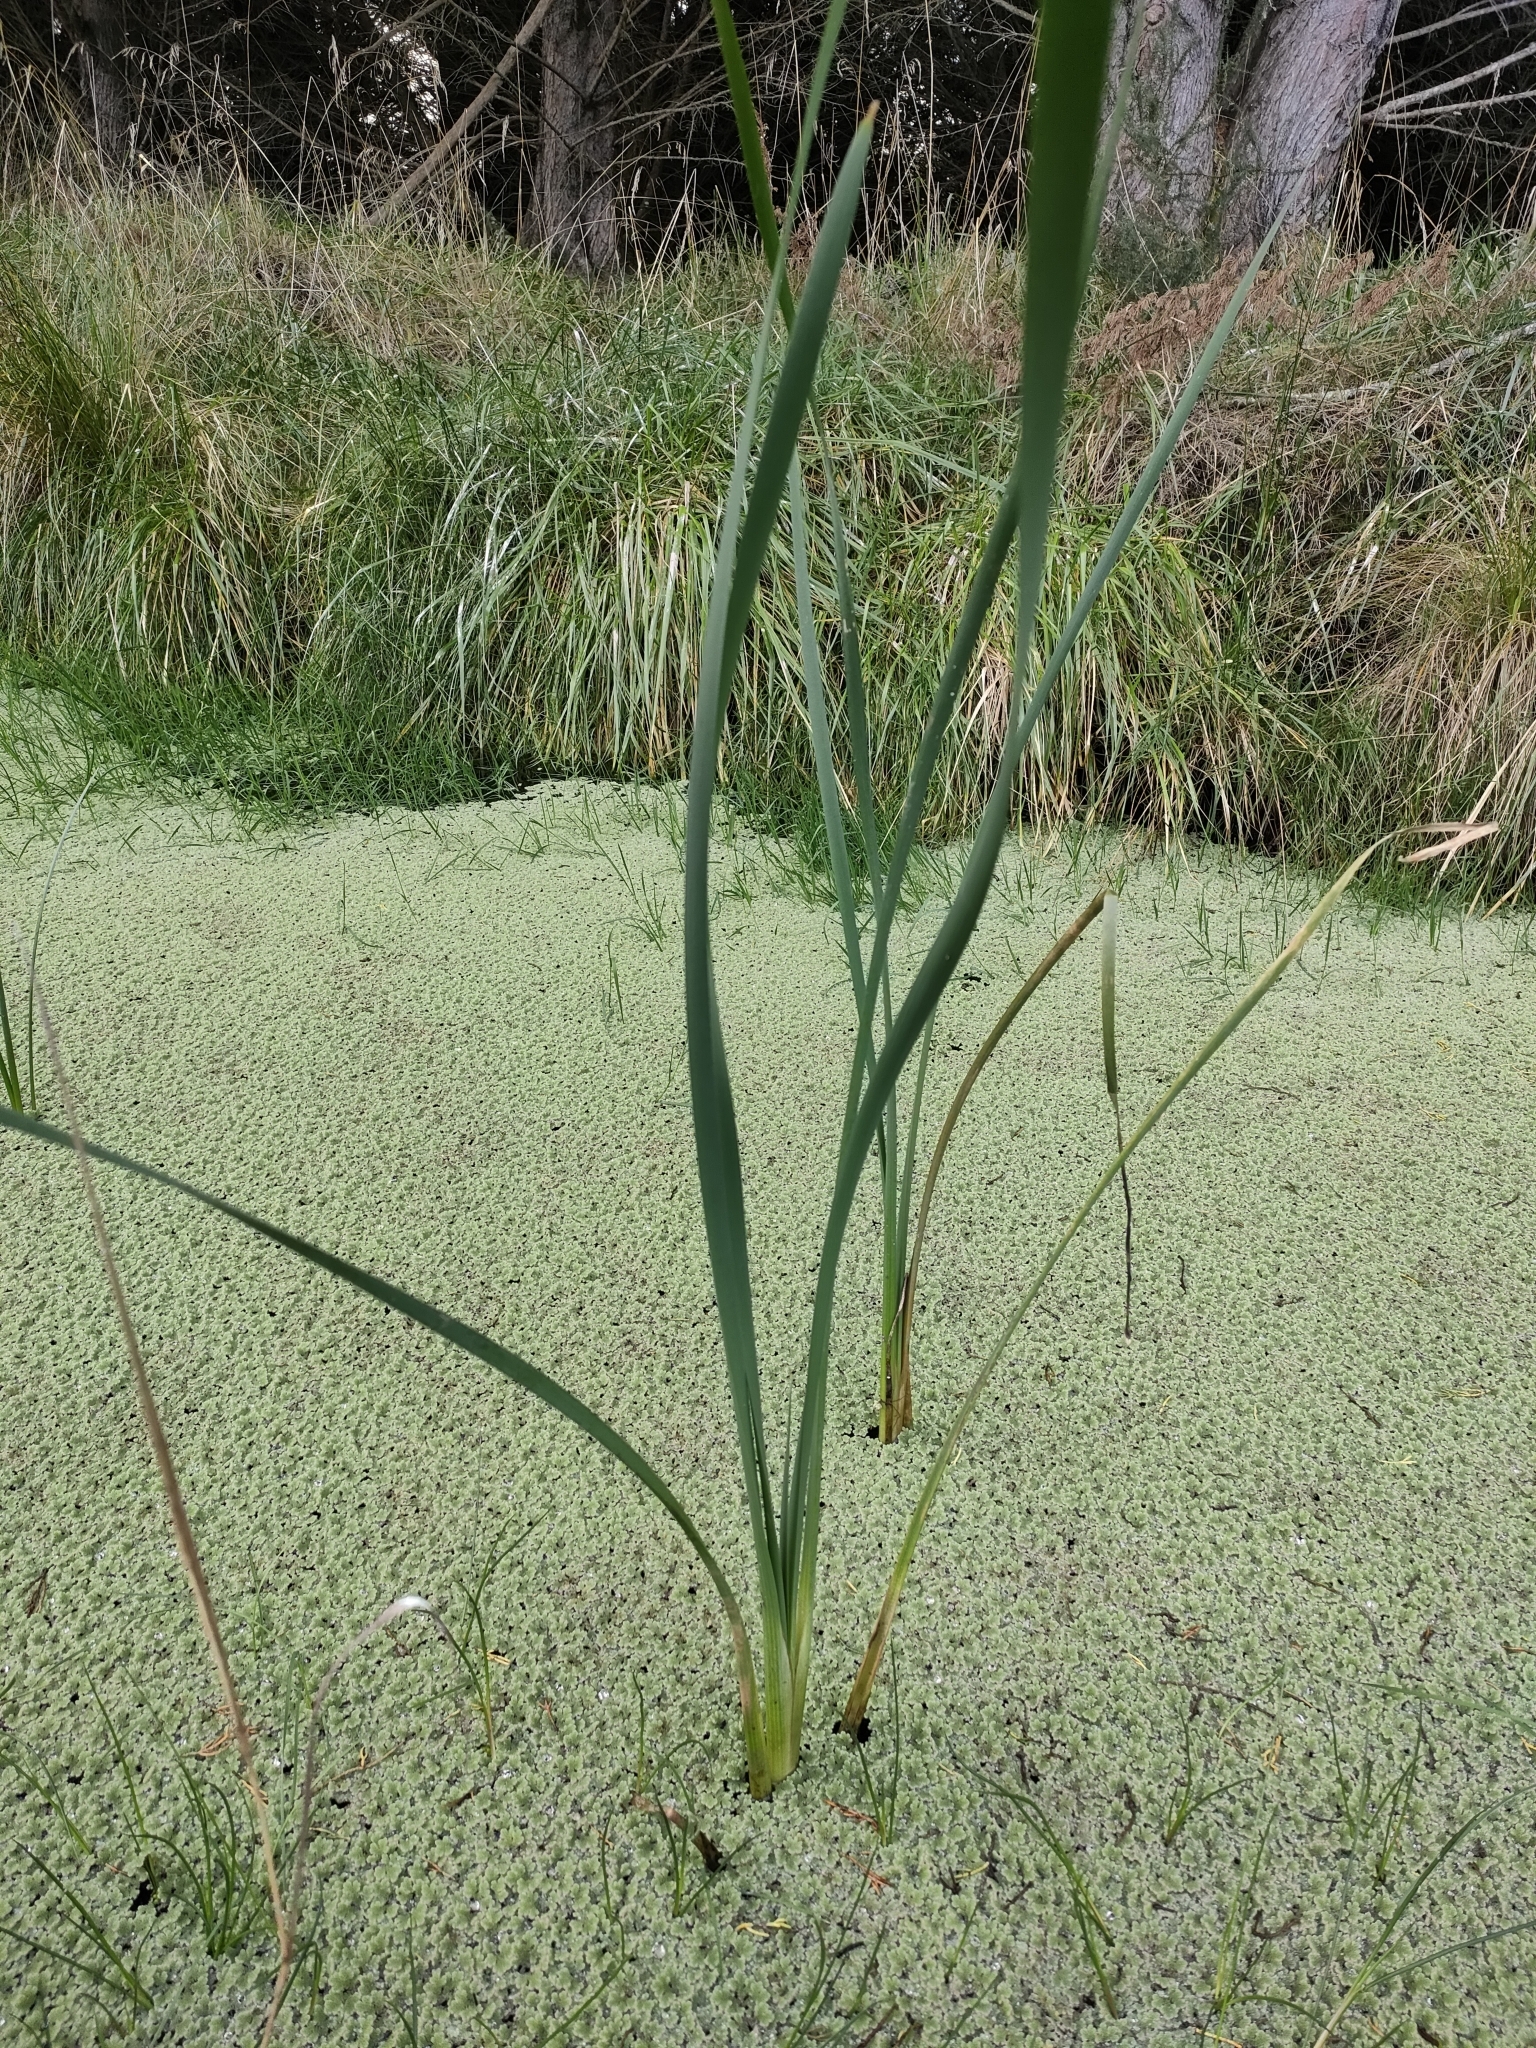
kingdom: Plantae
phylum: Tracheophyta
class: Liliopsida
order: Poales
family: Typhaceae
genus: Typha
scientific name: Typha orientalis
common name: Bullrush
